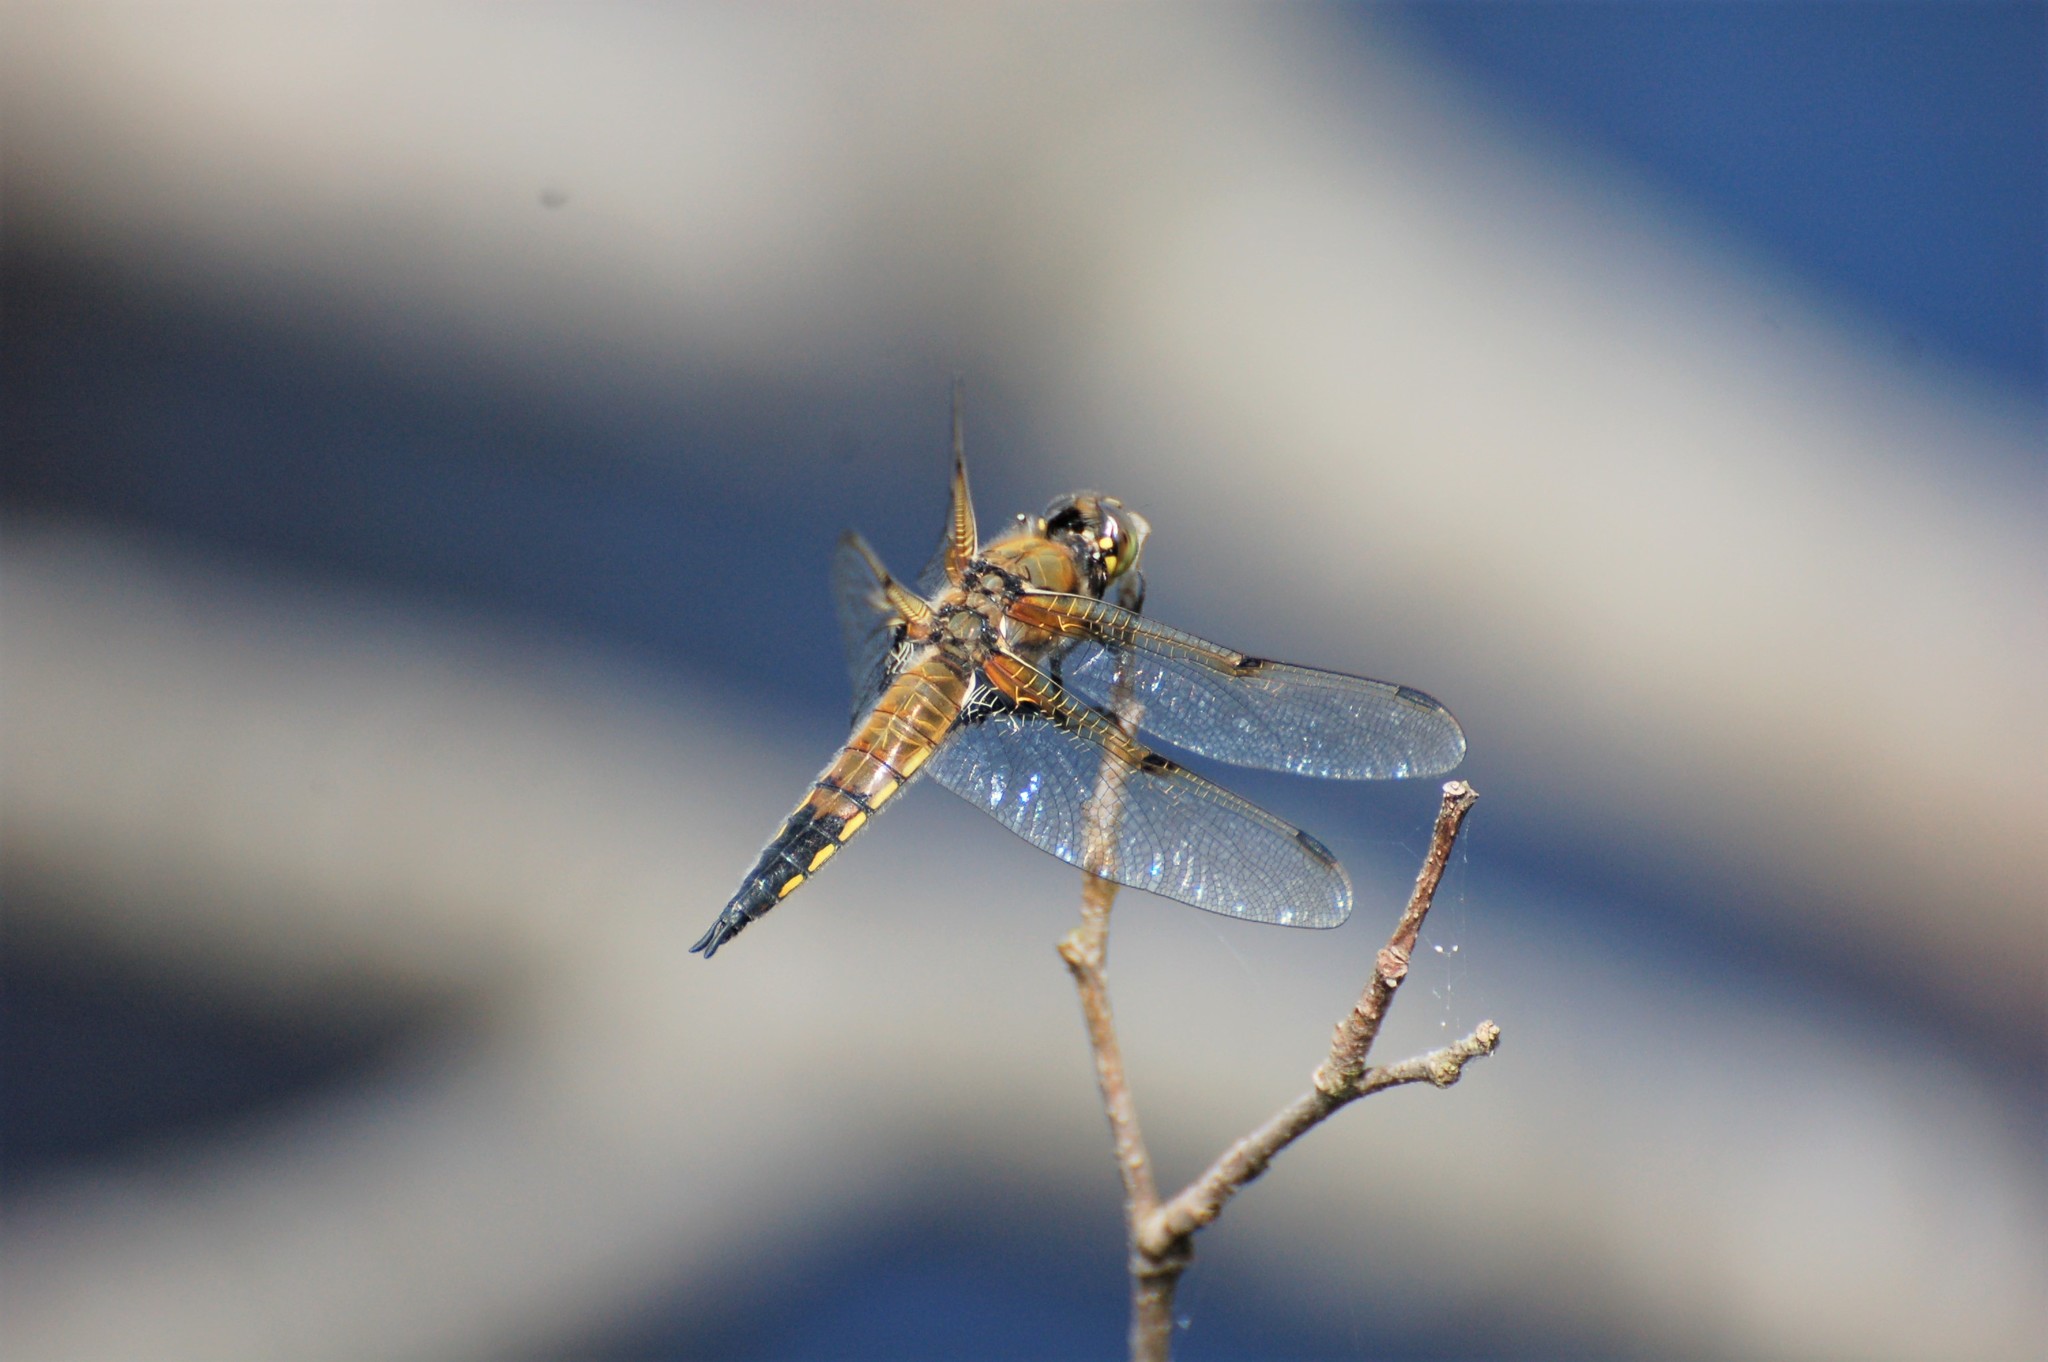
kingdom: Animalia
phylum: Arthropoda
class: Insecta
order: Odonata
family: Libellulidae
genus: Libellula
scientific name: Libellula quadrimaculata
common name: Four-spotted chaser
